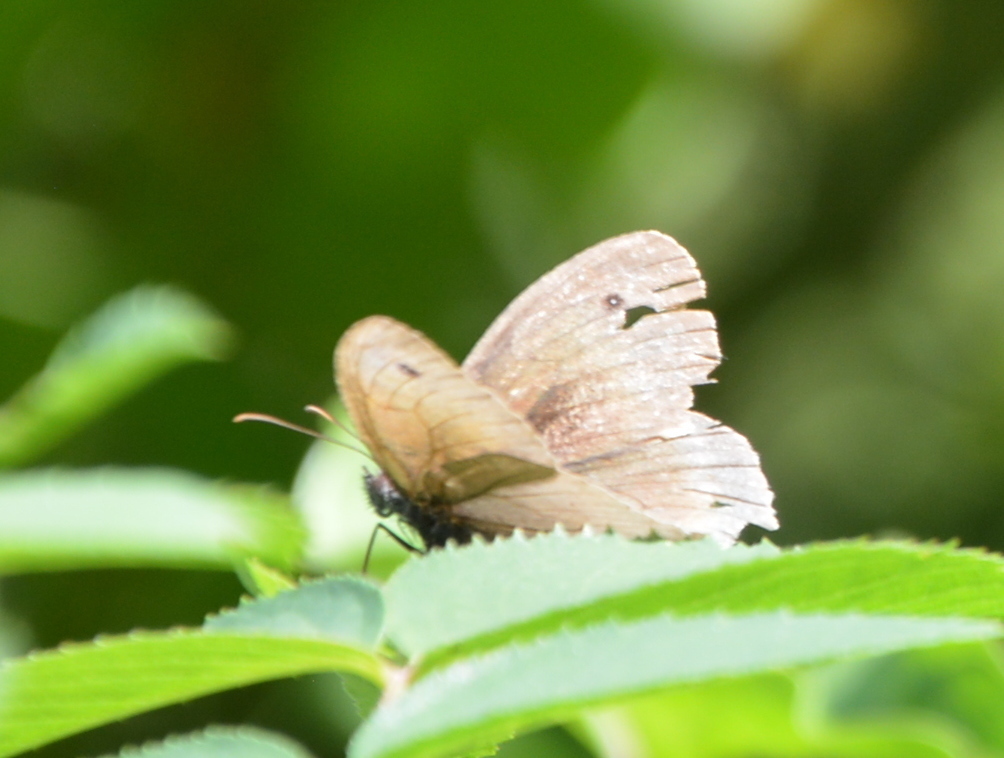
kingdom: Animalia
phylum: Arthropoda
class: Insecta
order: Lepidoptera
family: Nymphalidae
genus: Maniola
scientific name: Maniola jurtina
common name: Meadow brown
